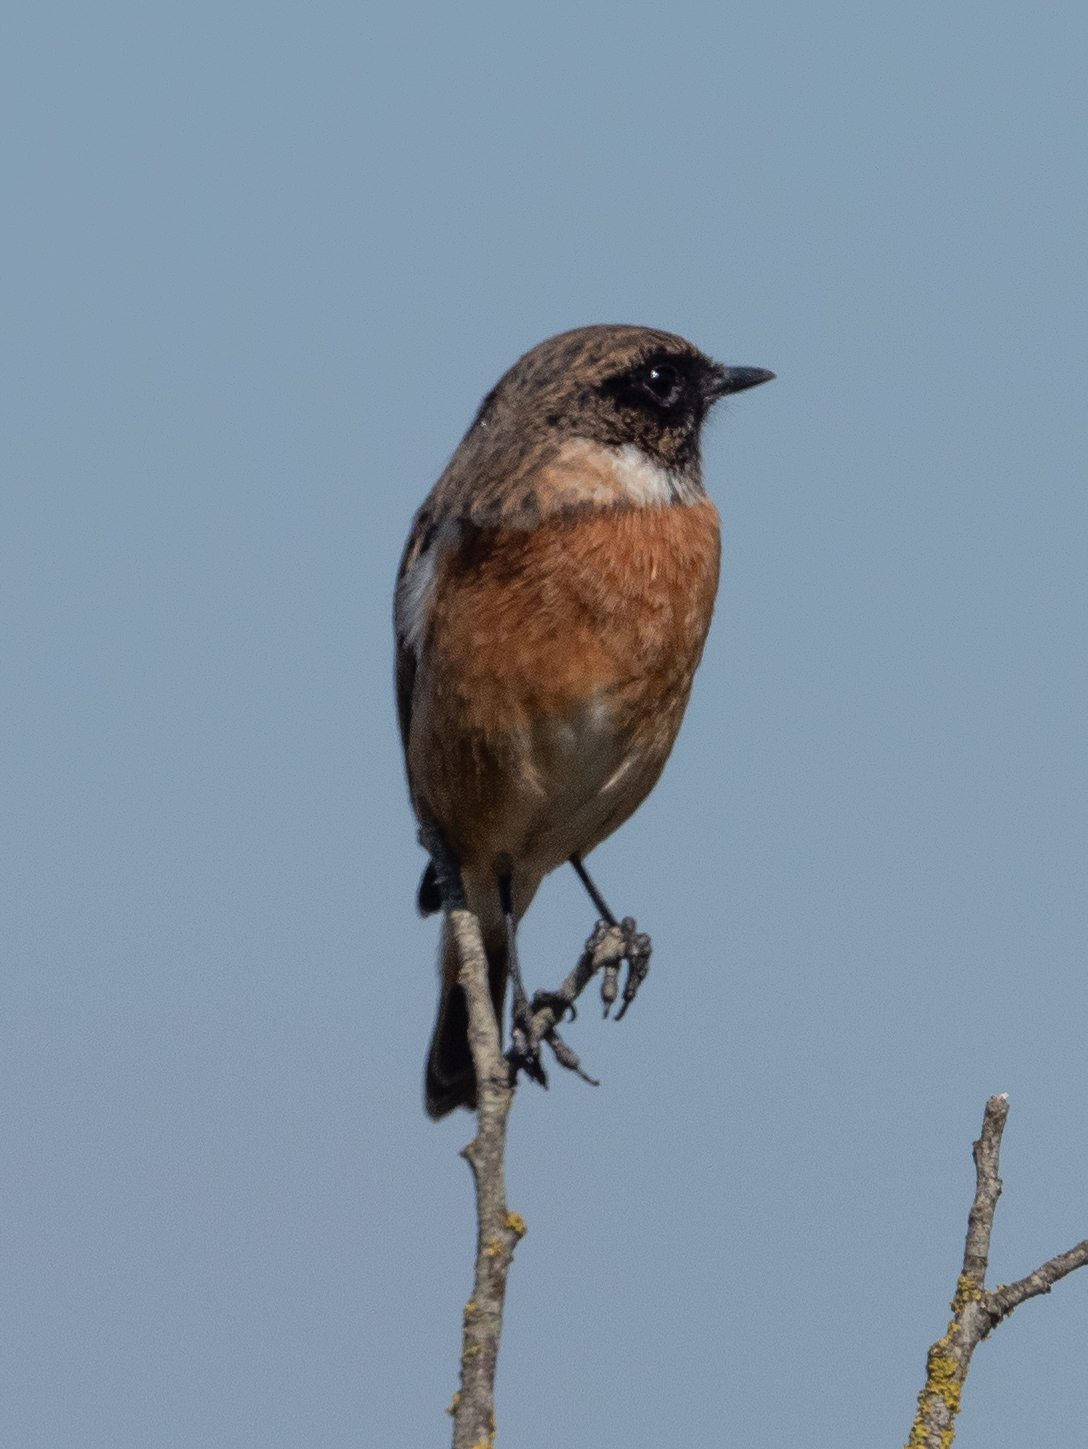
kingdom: Animalia
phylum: Chordata
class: Aves
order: Passeriformes
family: Muscicapidae
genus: Saxicola
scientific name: Saxicola rubicola
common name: European stonechat
